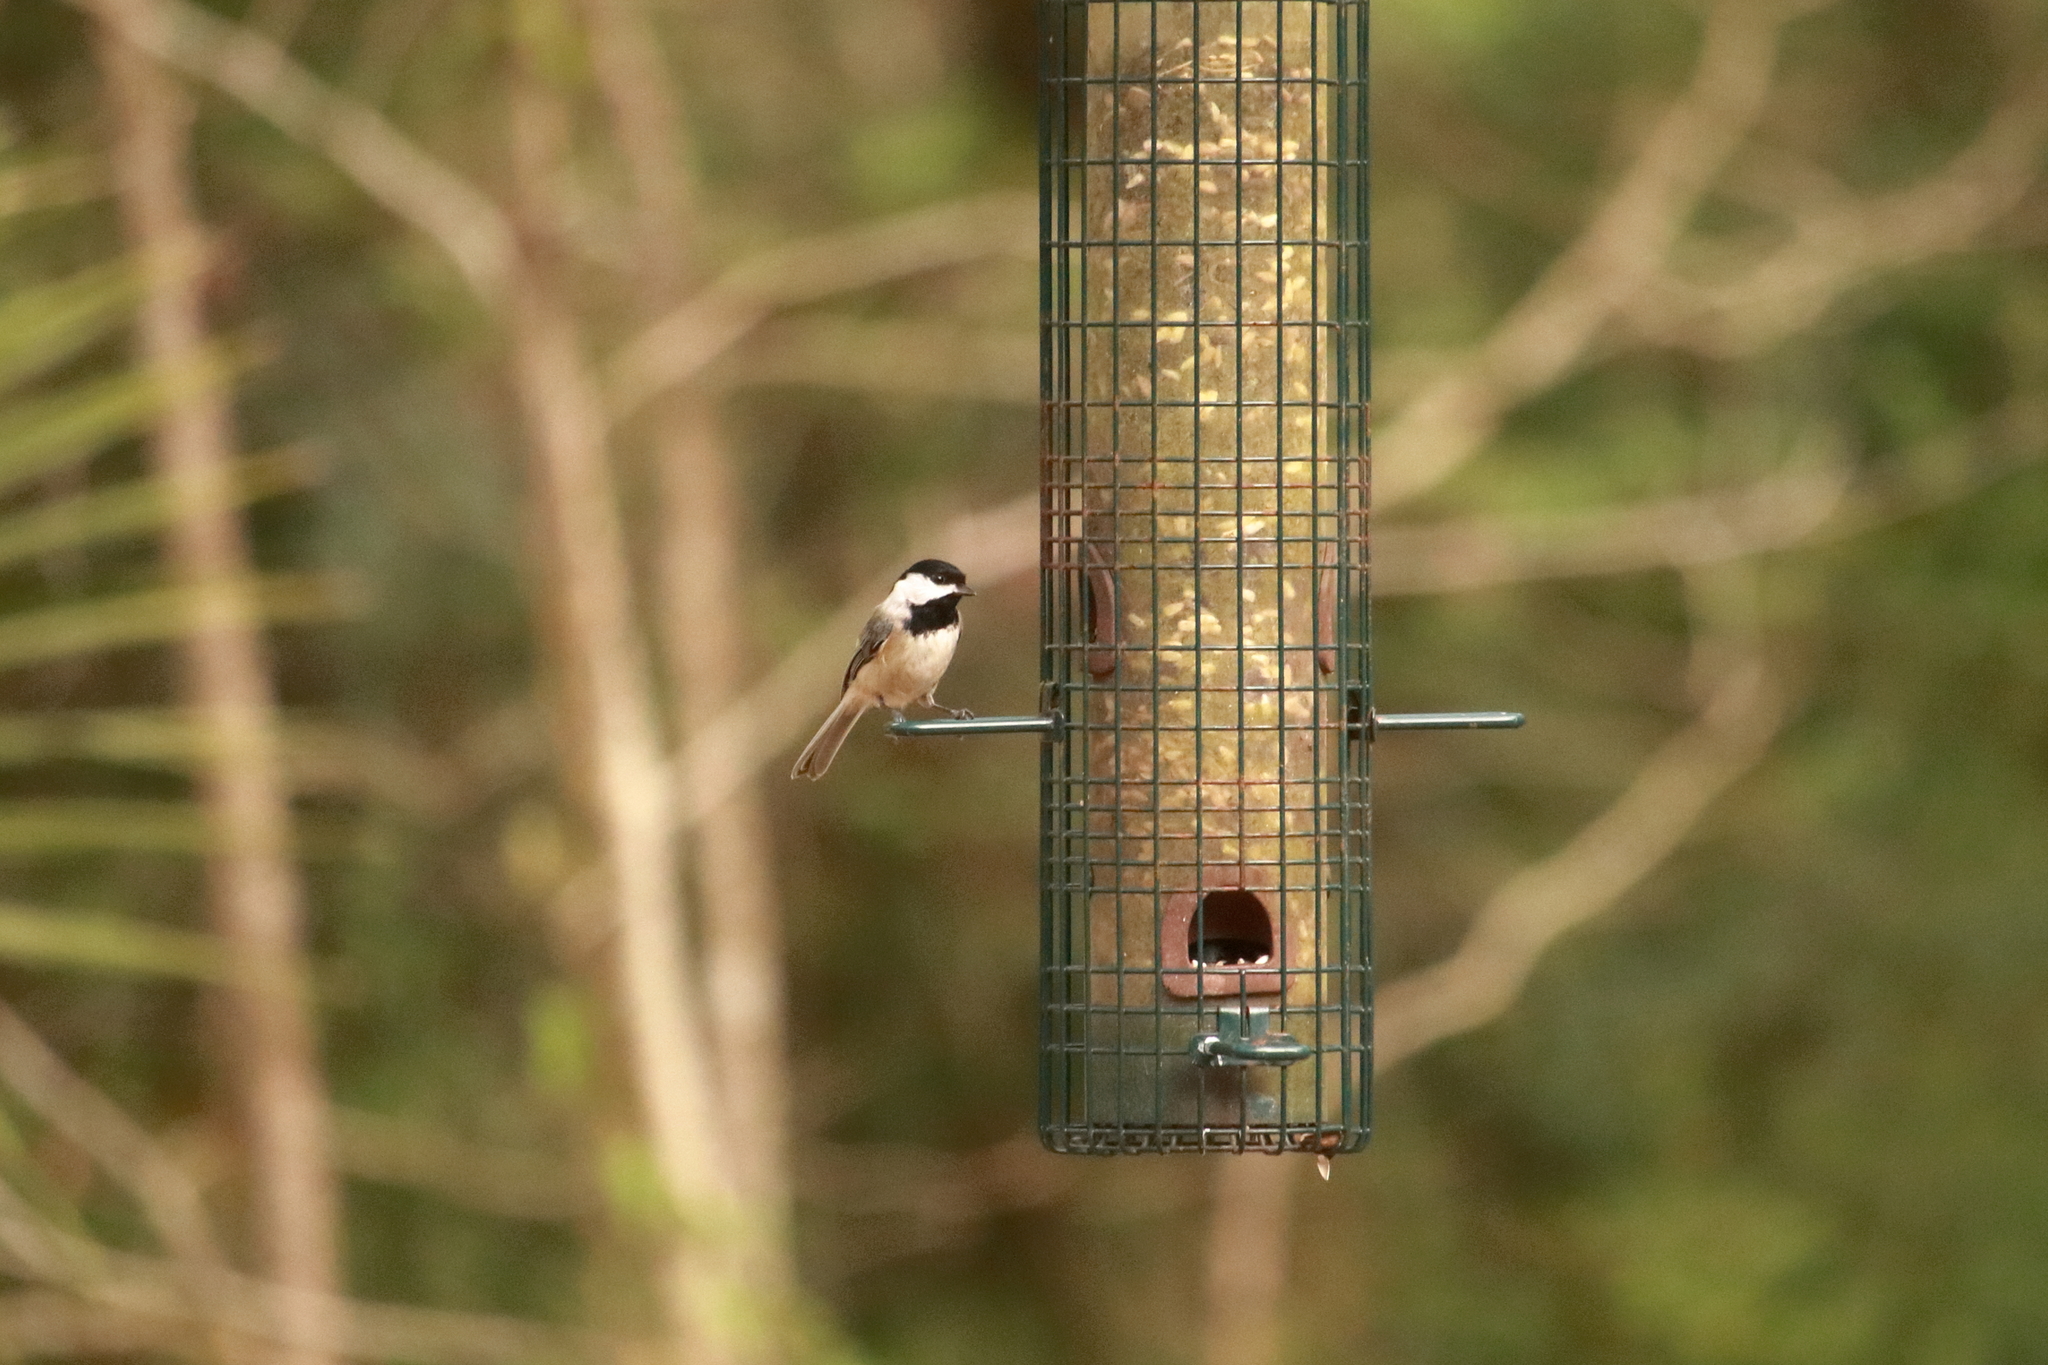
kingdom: Animalia
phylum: Chordata
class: Aves
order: Passeriformes
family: Paridae
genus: Poecile
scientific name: Poecile carolinensis
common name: Carolina chickadee
